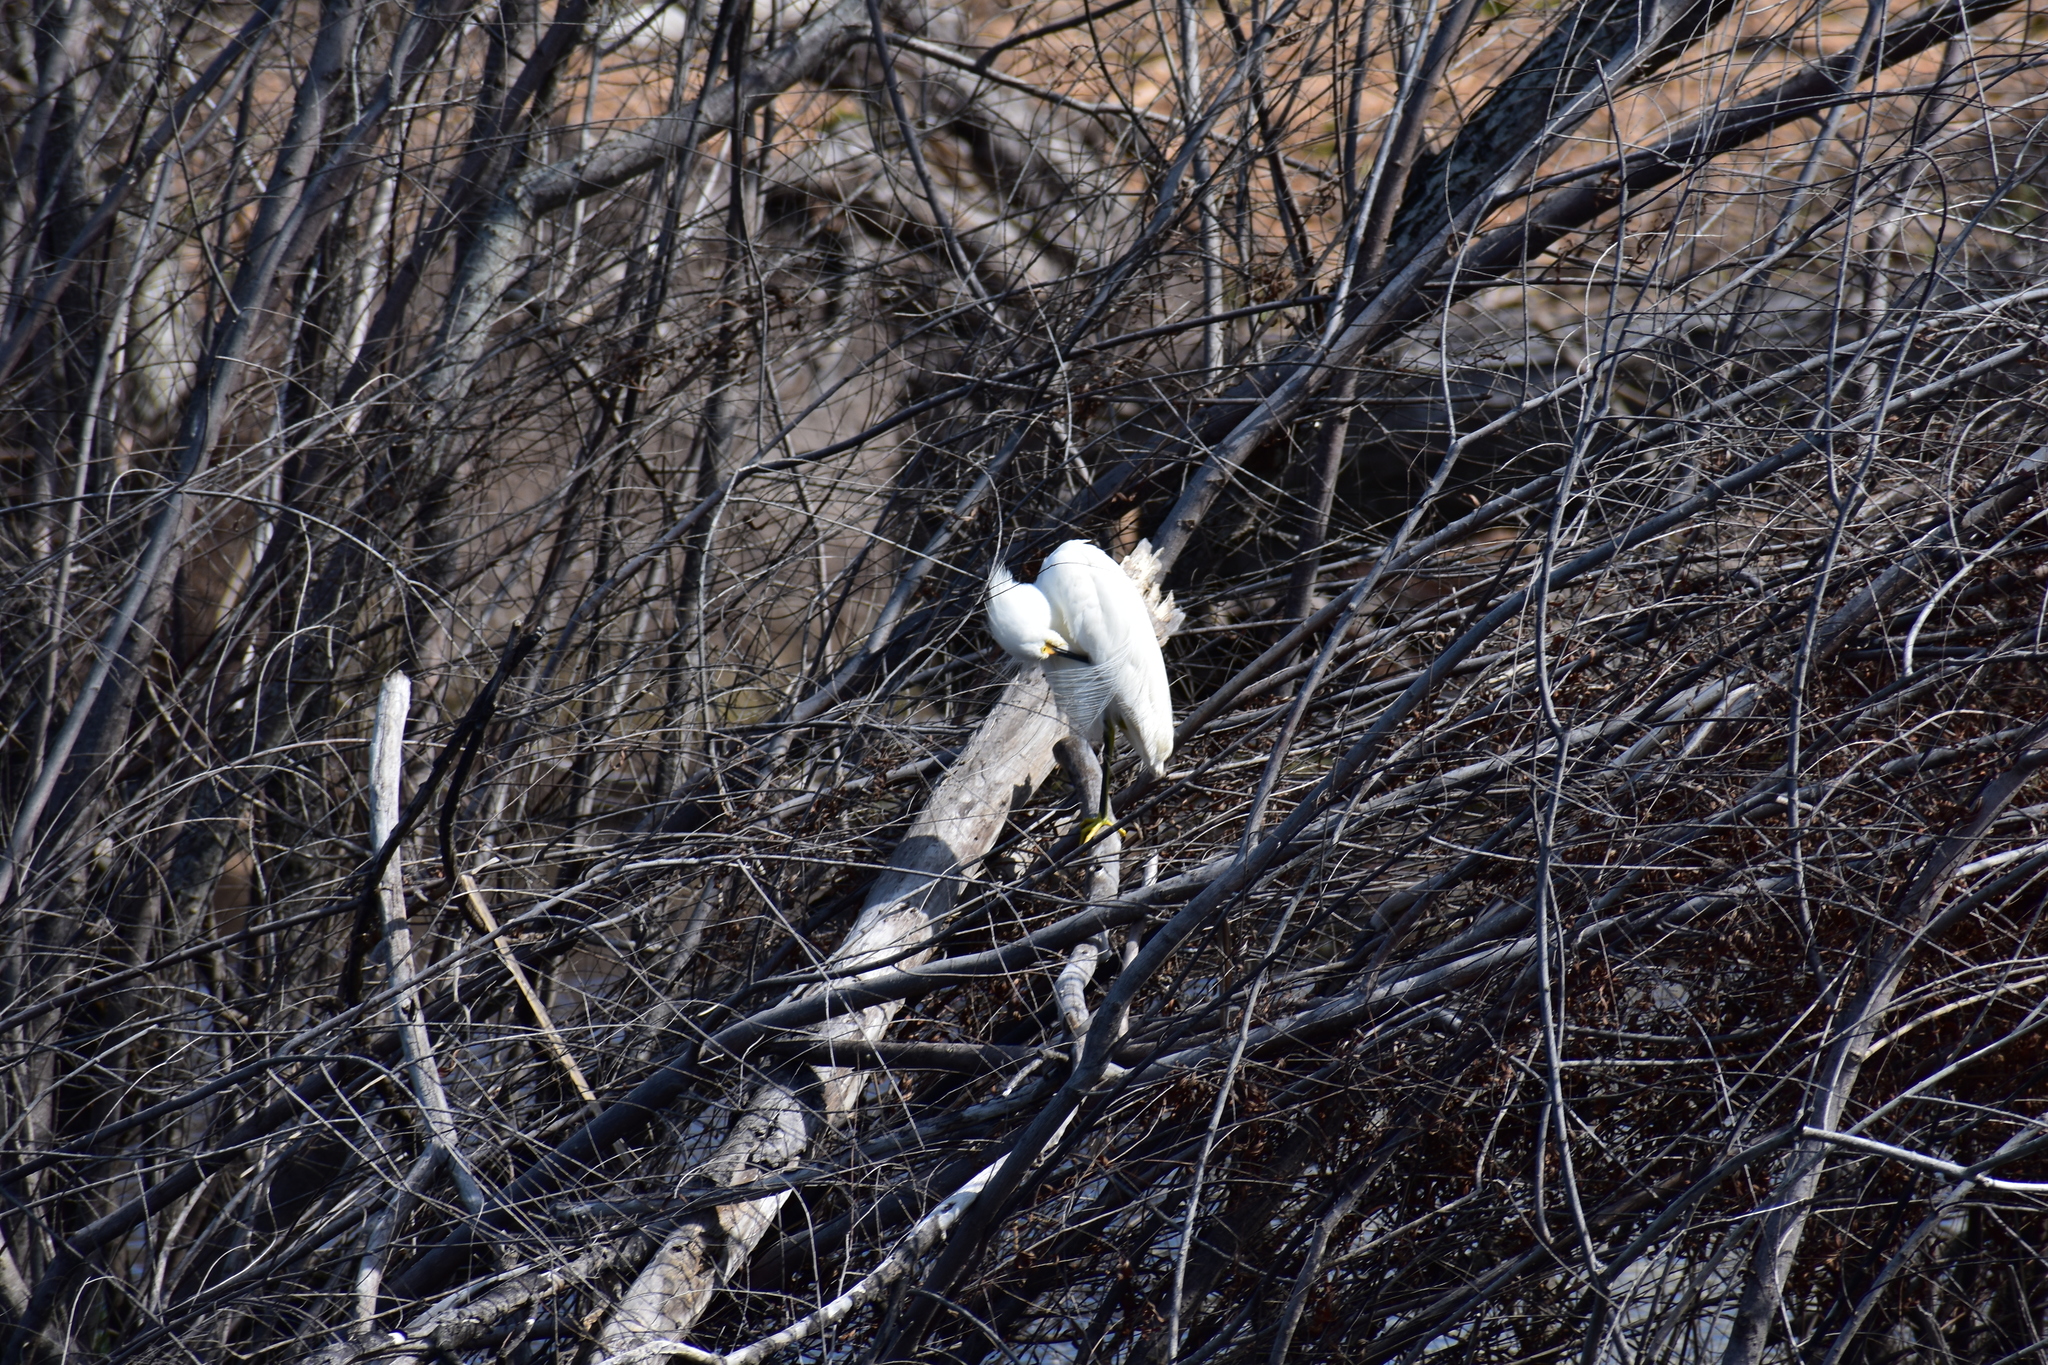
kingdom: Animalia
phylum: Chordata
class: Aves
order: Pelecaniformes
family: Ardeidae
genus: Egretta
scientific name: Egretta thula
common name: Snowy egret
